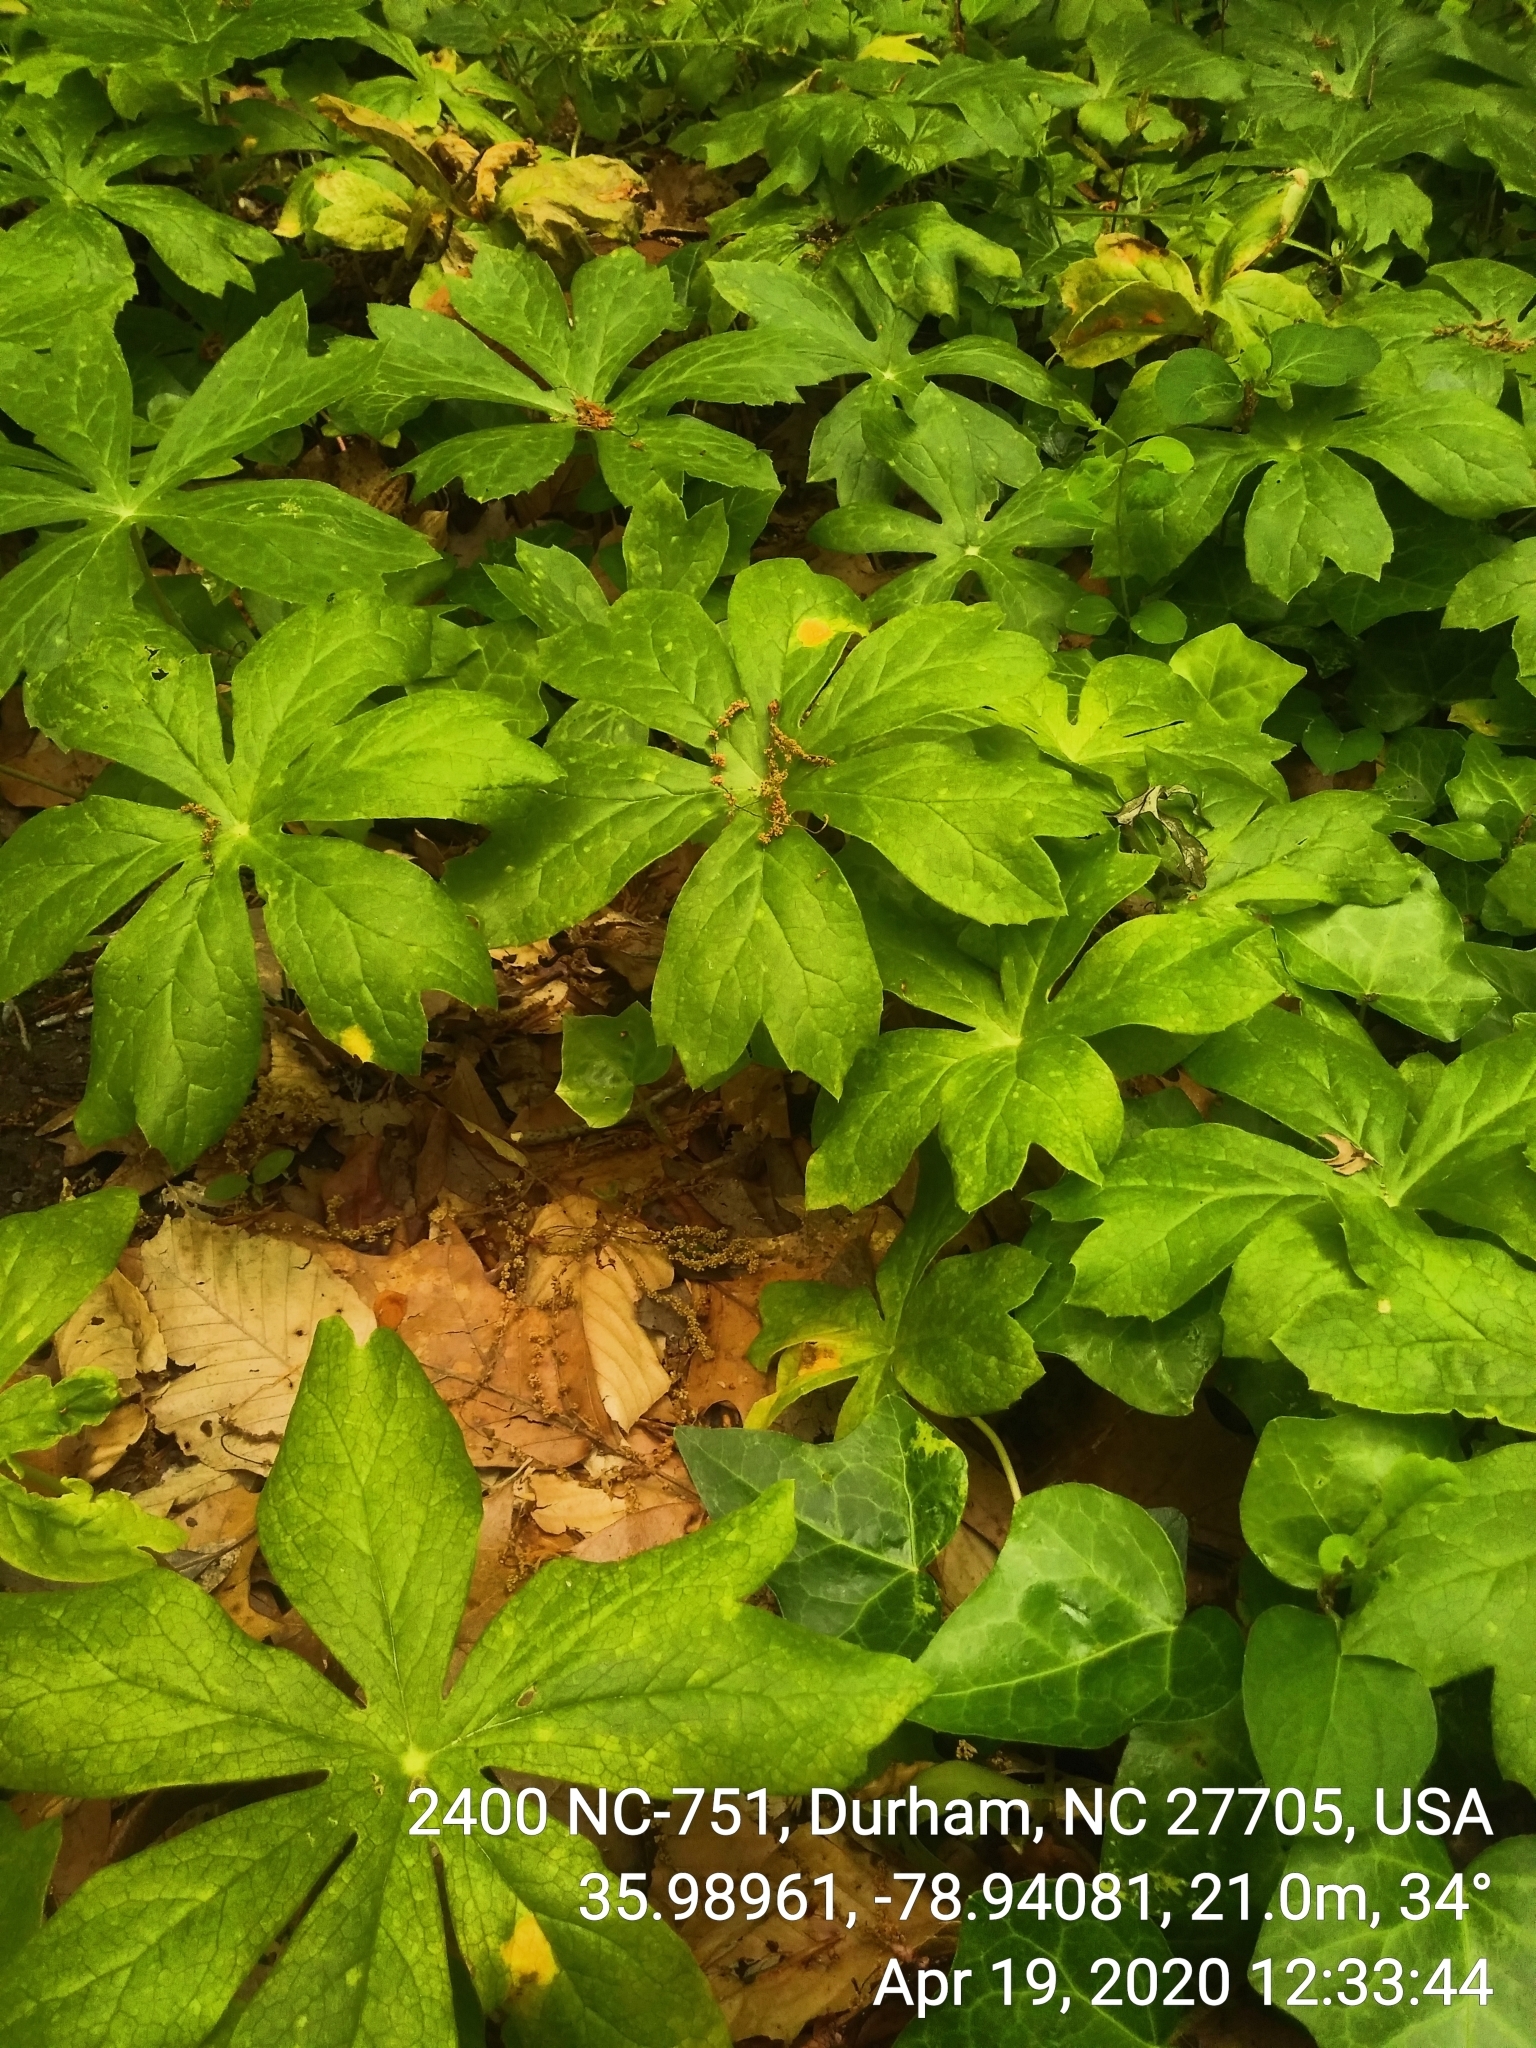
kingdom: Plantae
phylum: Tracheophyta
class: Magnoliopsida
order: Ranunculales
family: Berberidaceae
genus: Podophyllum
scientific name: Podophyllum peltatum
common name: Wild mandrake
